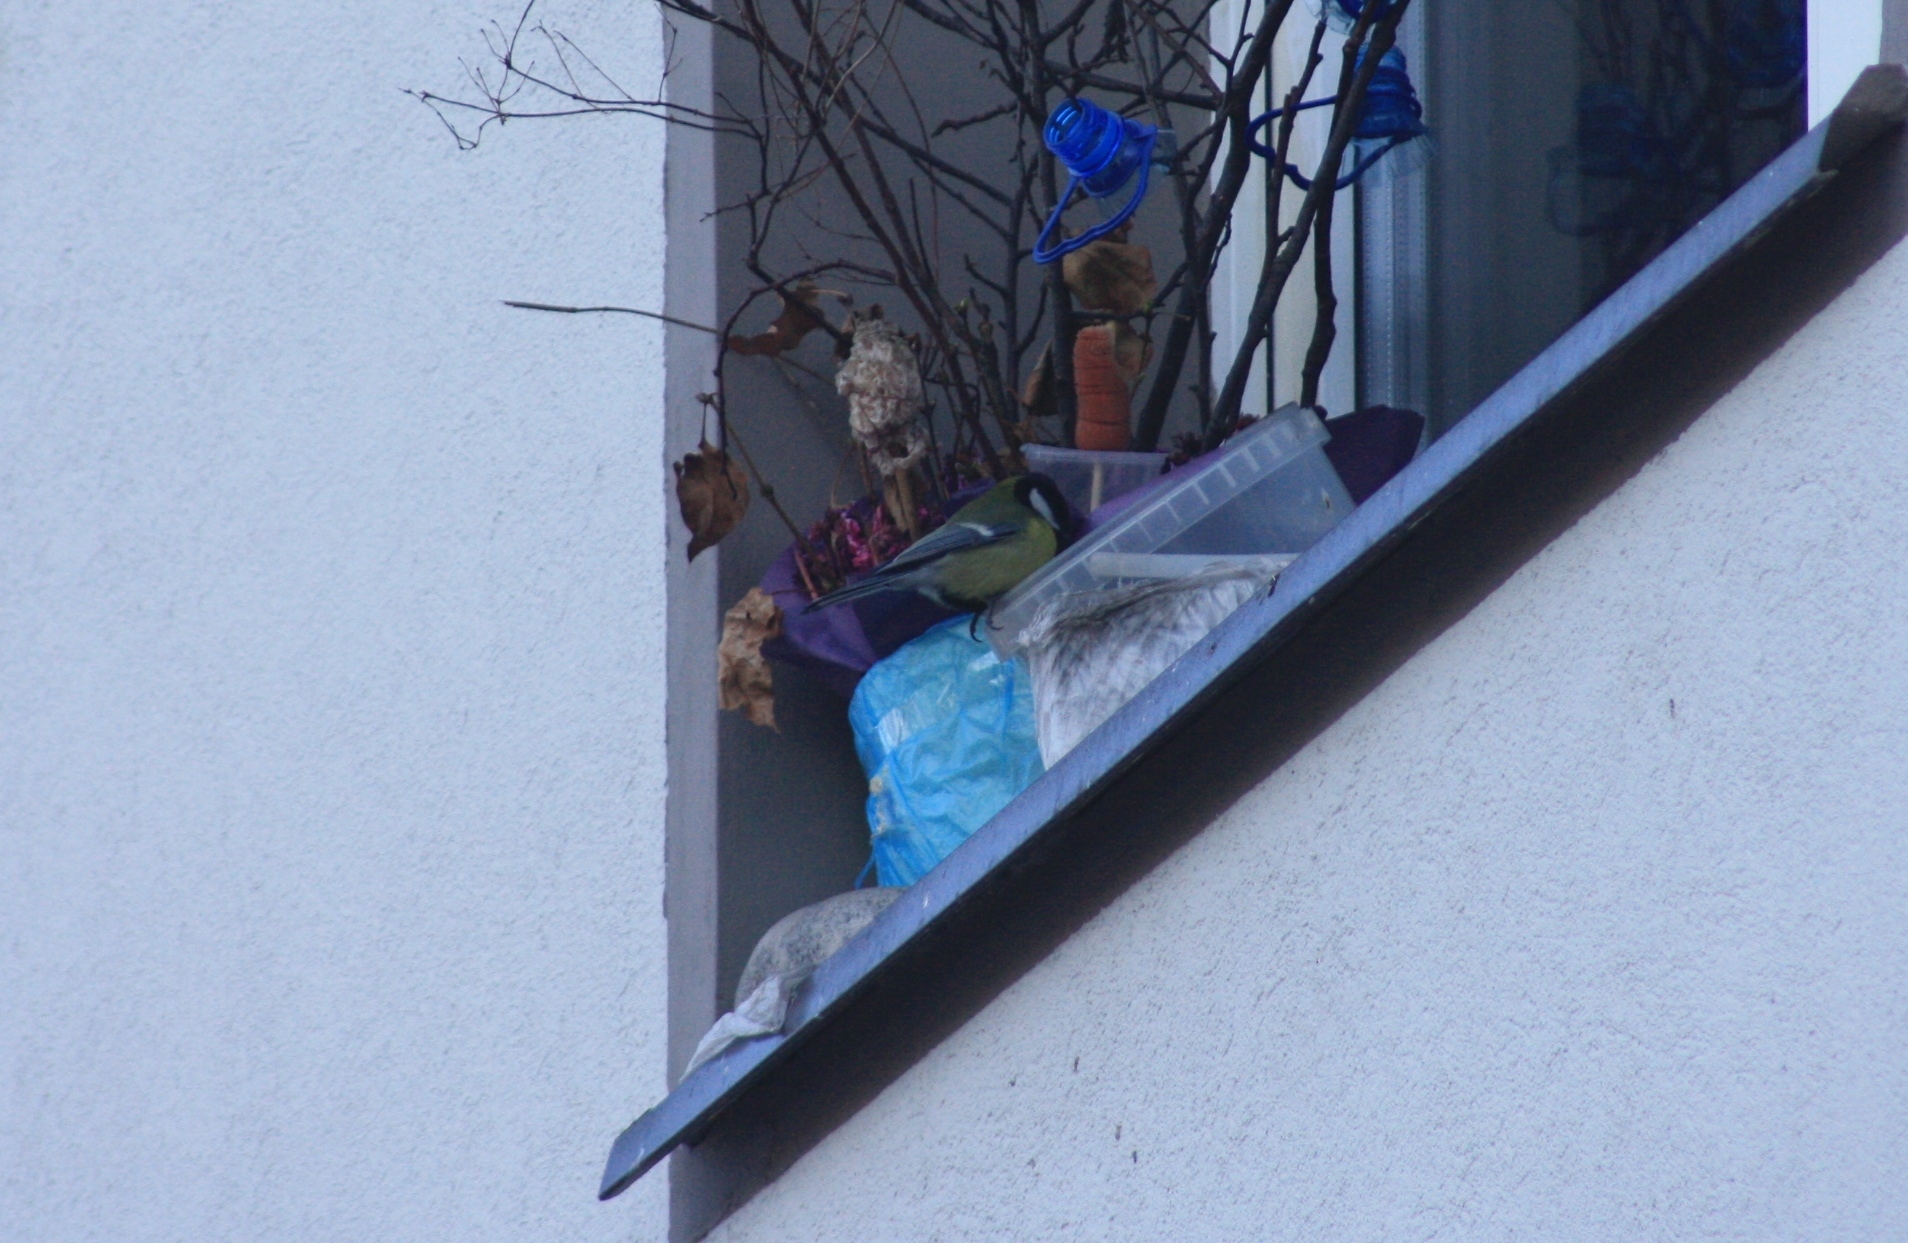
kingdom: Animalia
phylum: Chordata
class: Aves
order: Passeriformes
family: Paridae
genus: Parus
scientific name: Parus major
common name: Great tit
